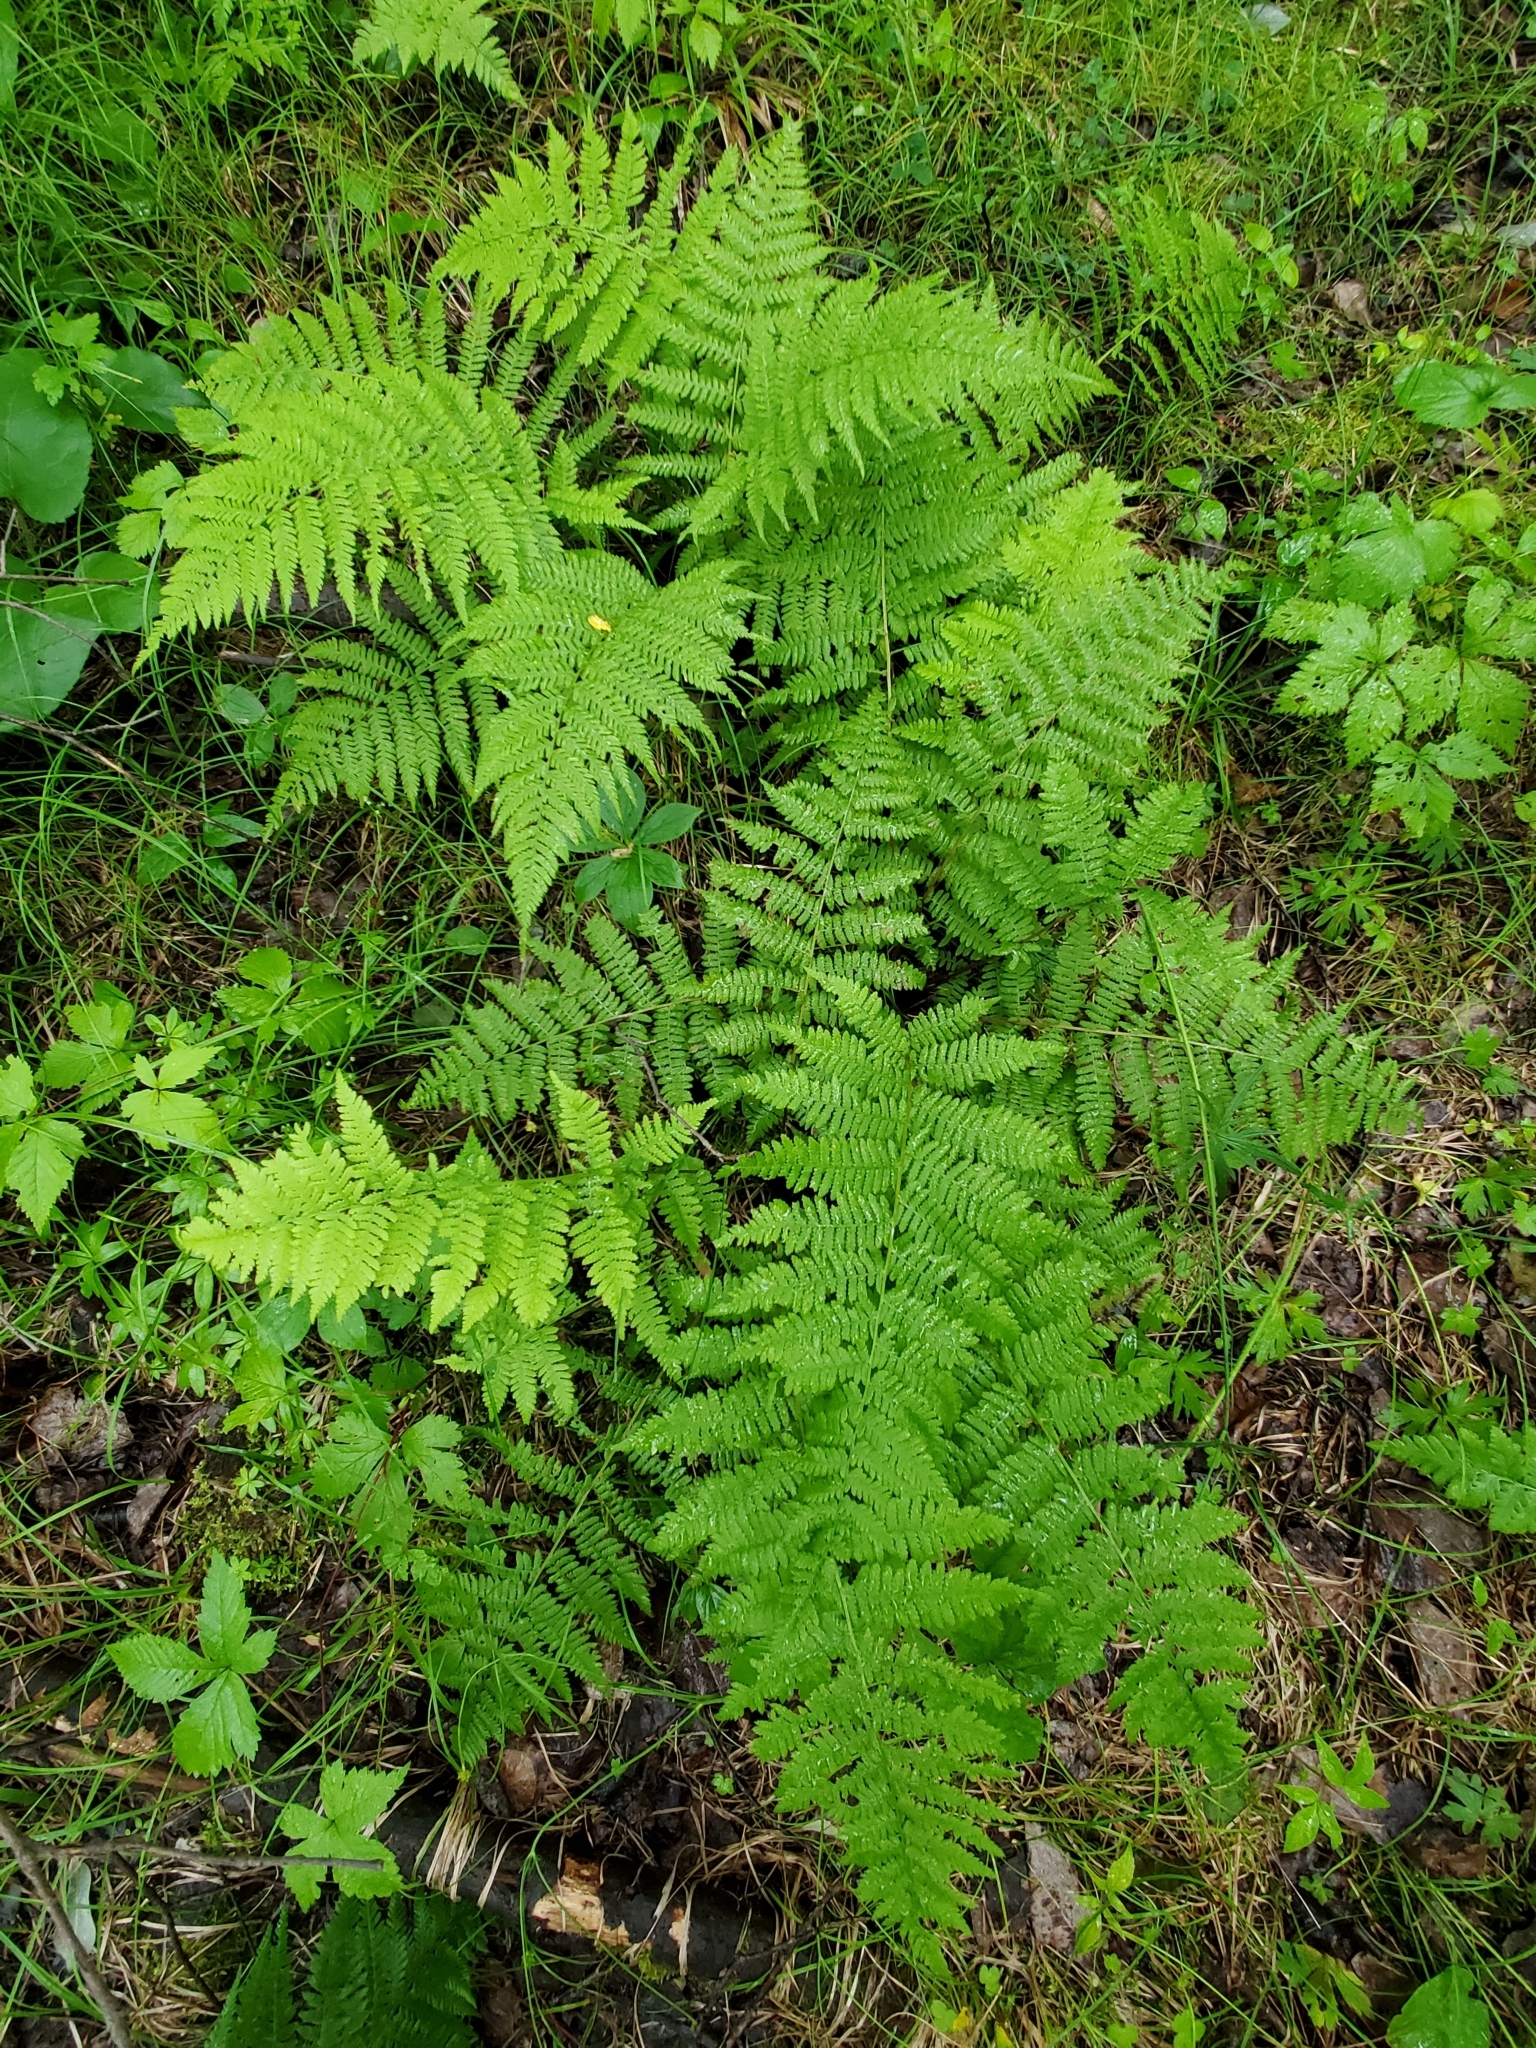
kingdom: Plantae
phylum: Tracheophyta
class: Polypodiopsida
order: Polypodiales
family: Athyriaceae
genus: Athyrium
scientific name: Athyrium angustum
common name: Northern lady fern
